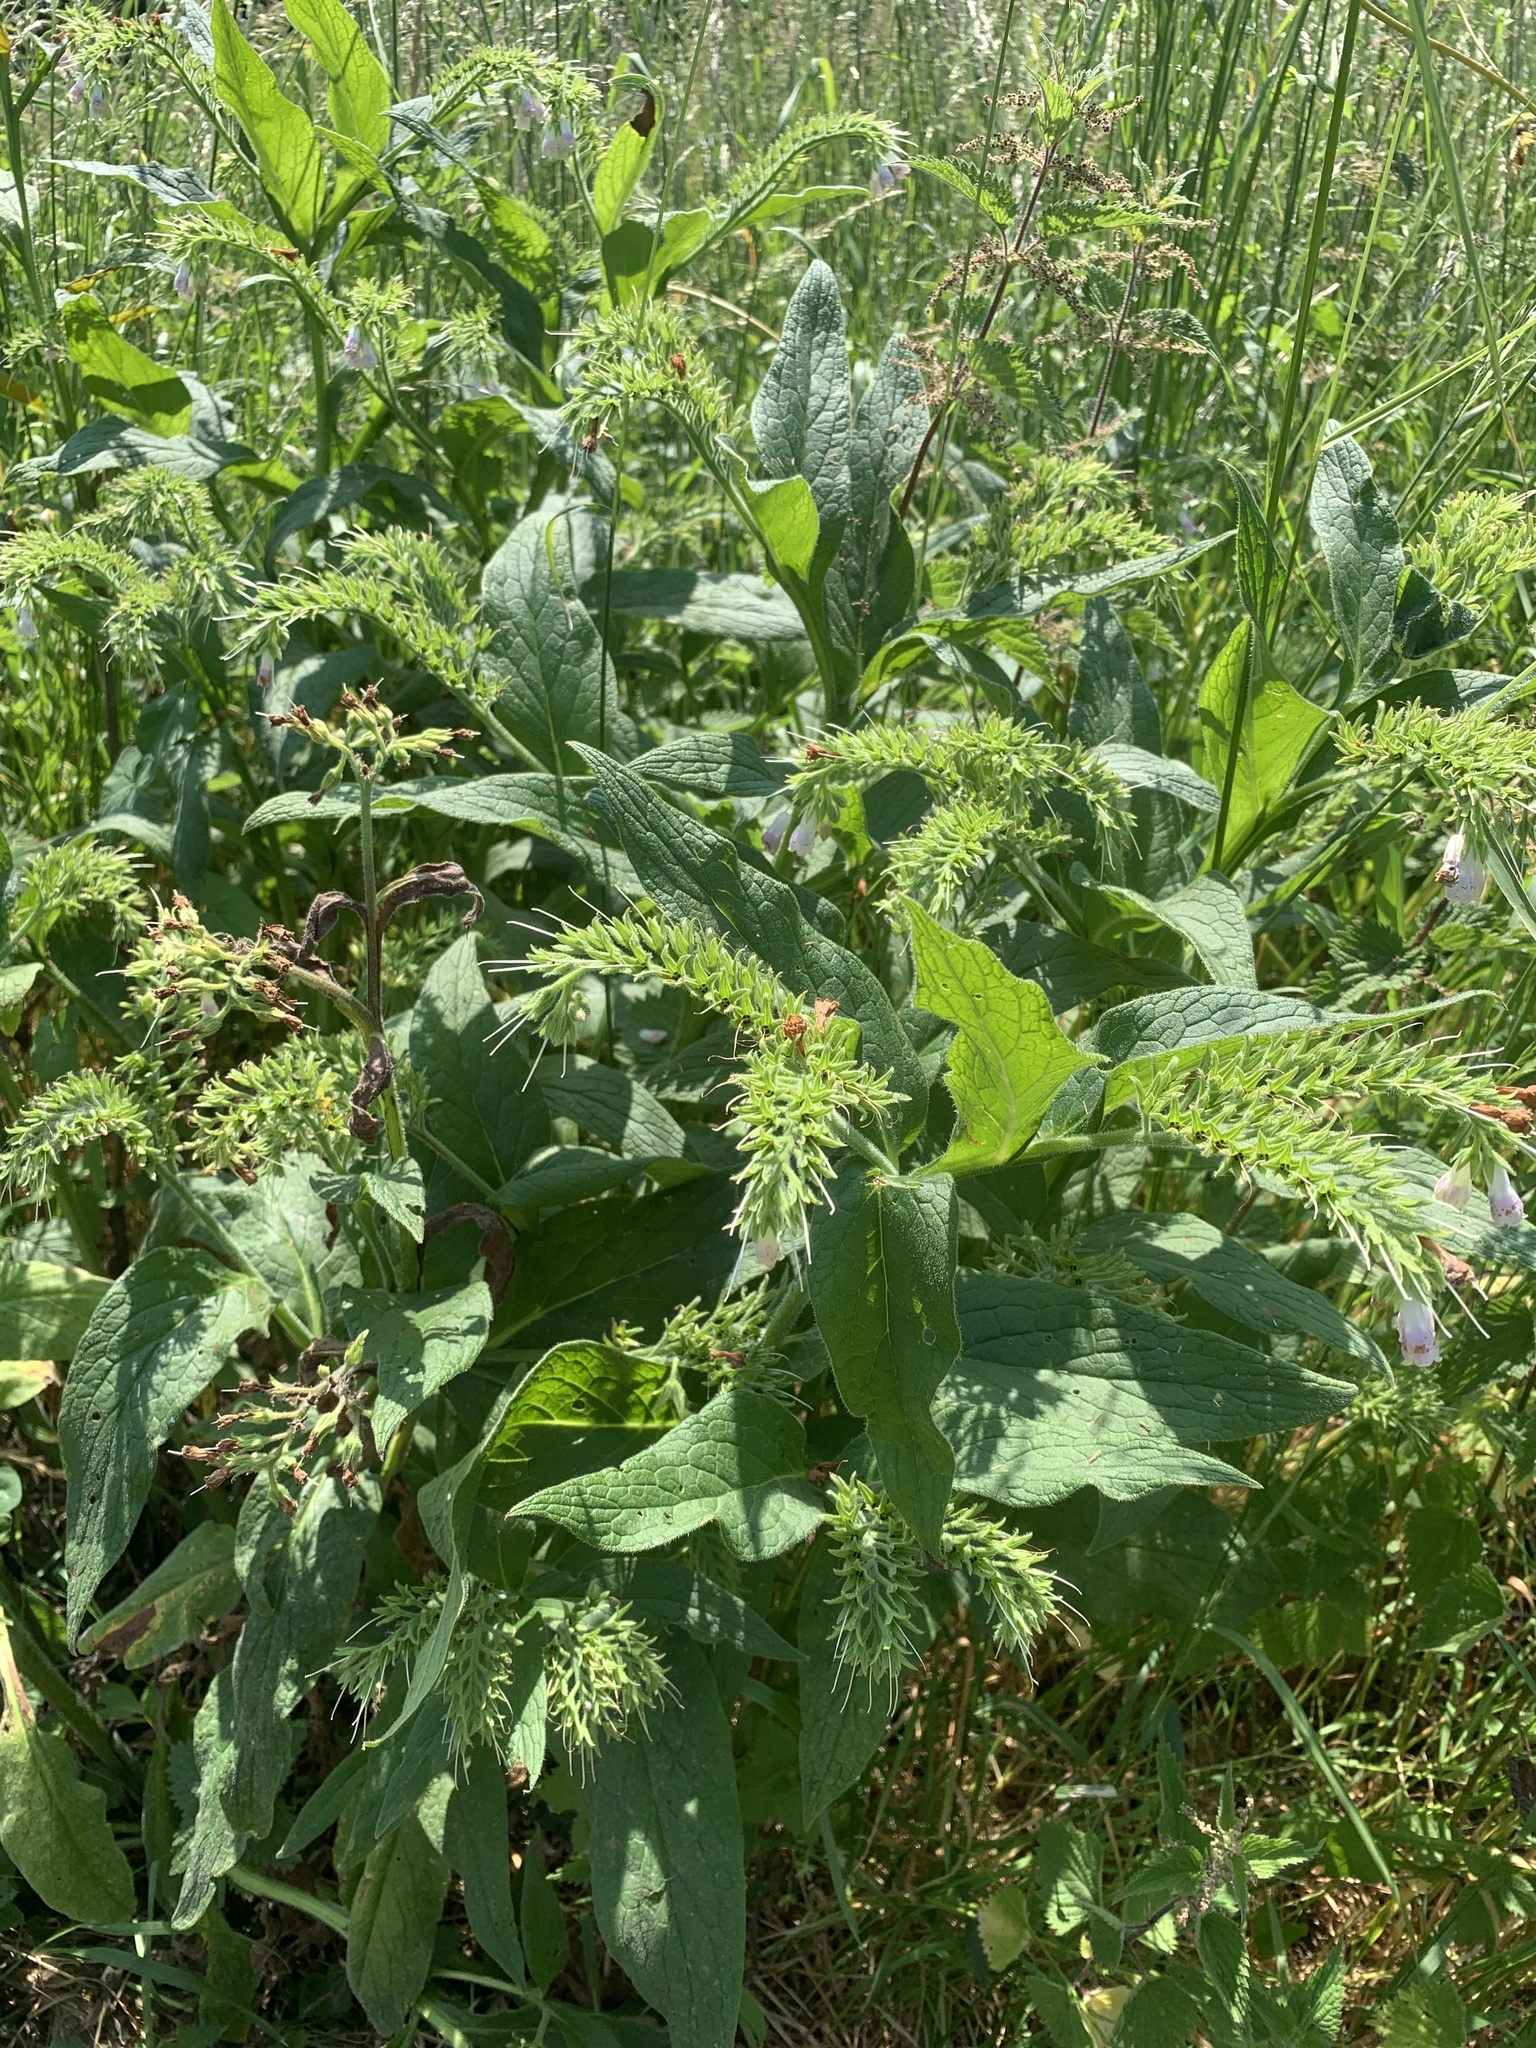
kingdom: Plantae
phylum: Tracheophyta
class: Magnoliopsida
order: Boraginales
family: Boraginaceae
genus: Symphytum
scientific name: Symphytum officinale
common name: Common comfrey
